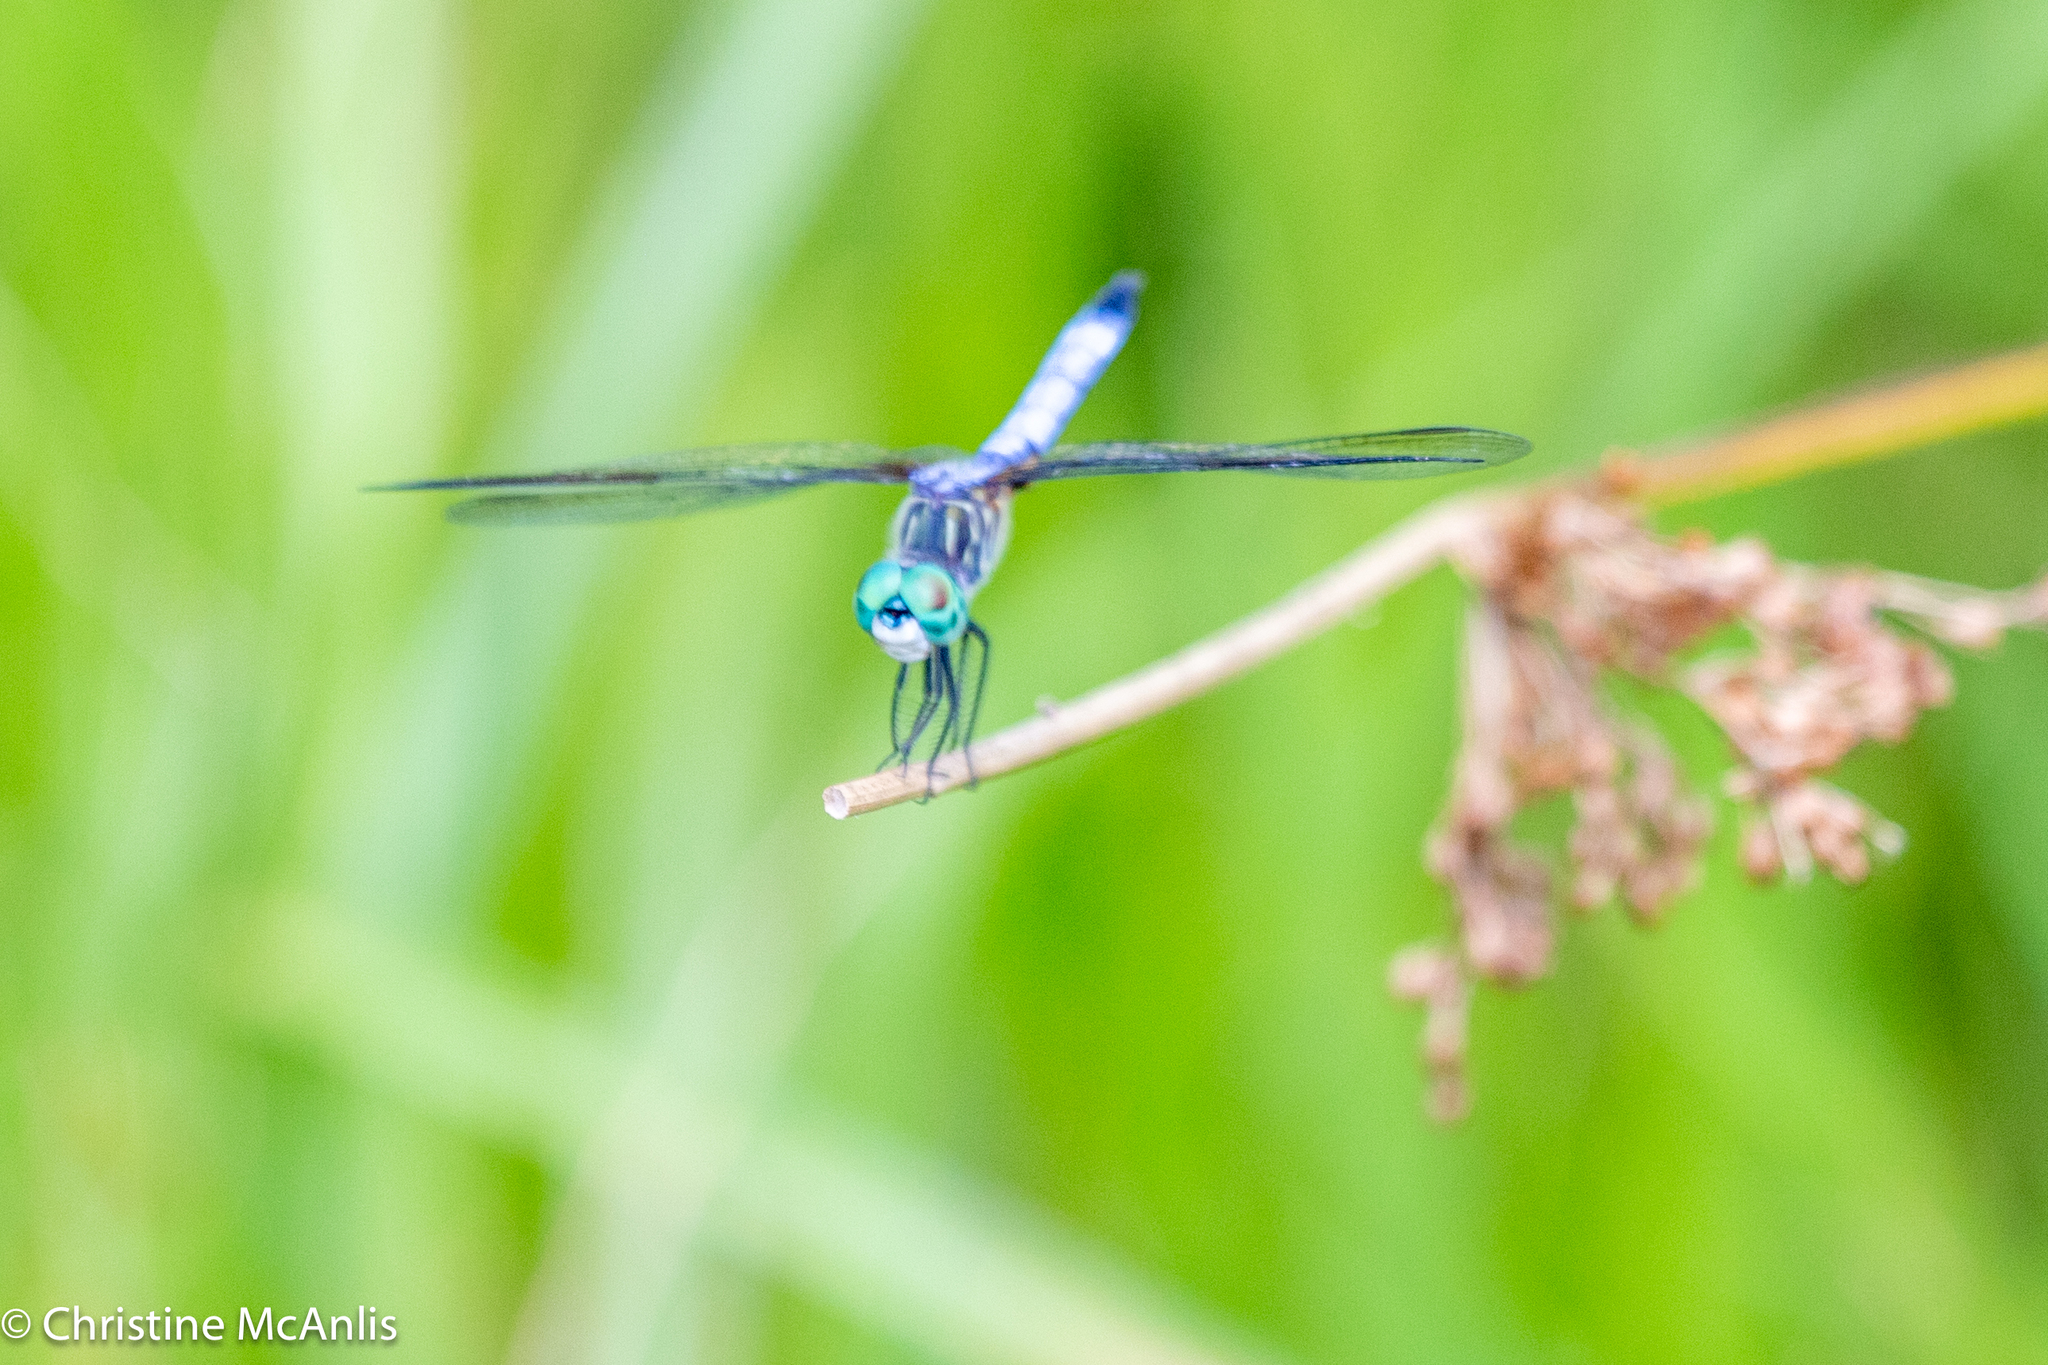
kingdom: Animalia
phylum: Arthropoda
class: Insecta
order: Odonata
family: Libellulidae
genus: Pachydiplax
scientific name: Pachydiplax longipennis
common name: Blue dasher
